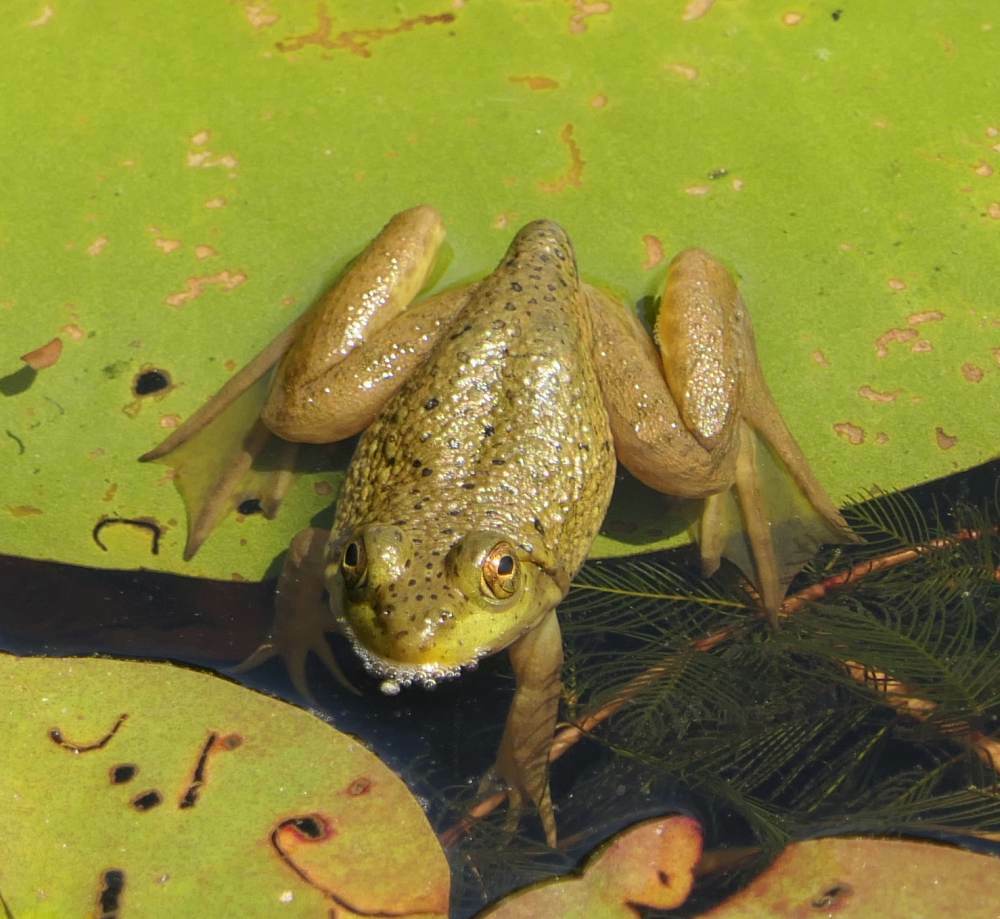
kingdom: Animalia
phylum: Chordata
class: Amphibia
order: Anura
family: Ranidae
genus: Lithobates
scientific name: Lithobates catesbeianus
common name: American bullfrog
